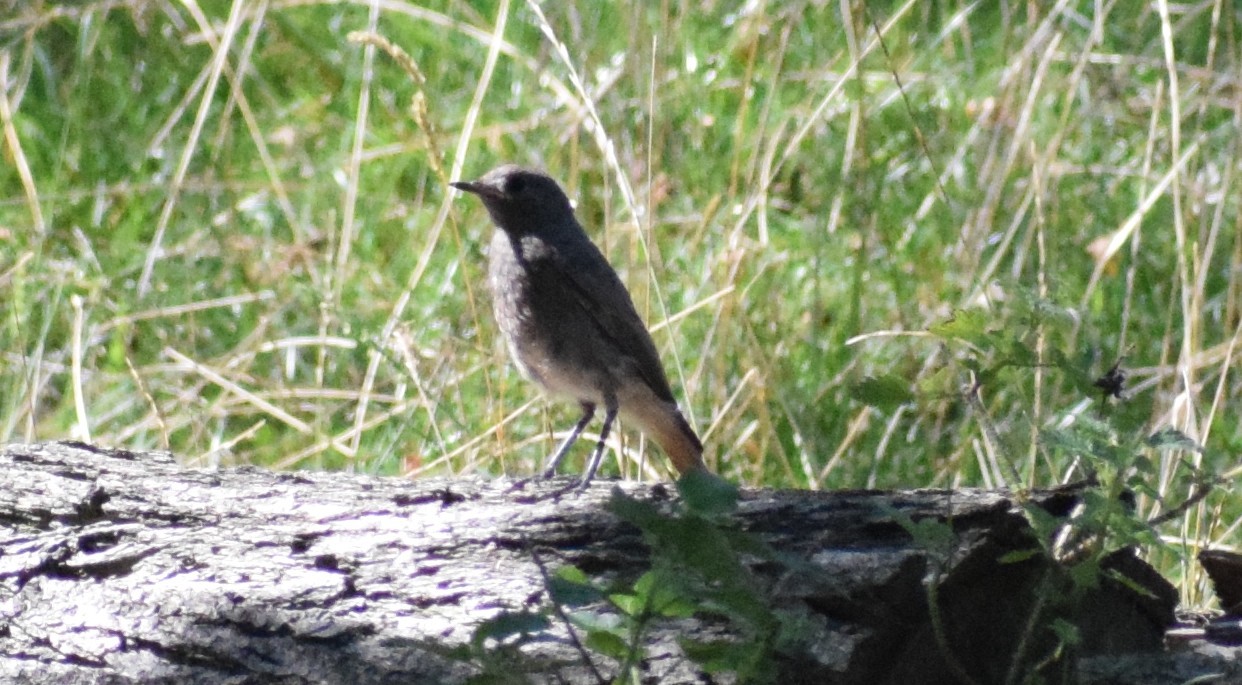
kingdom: Animalia
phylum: Chordata
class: Aves
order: Passeriformes
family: Muscicapidae
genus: Phoenicurus
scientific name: Phoenicurus ochruros
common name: Black redstart
